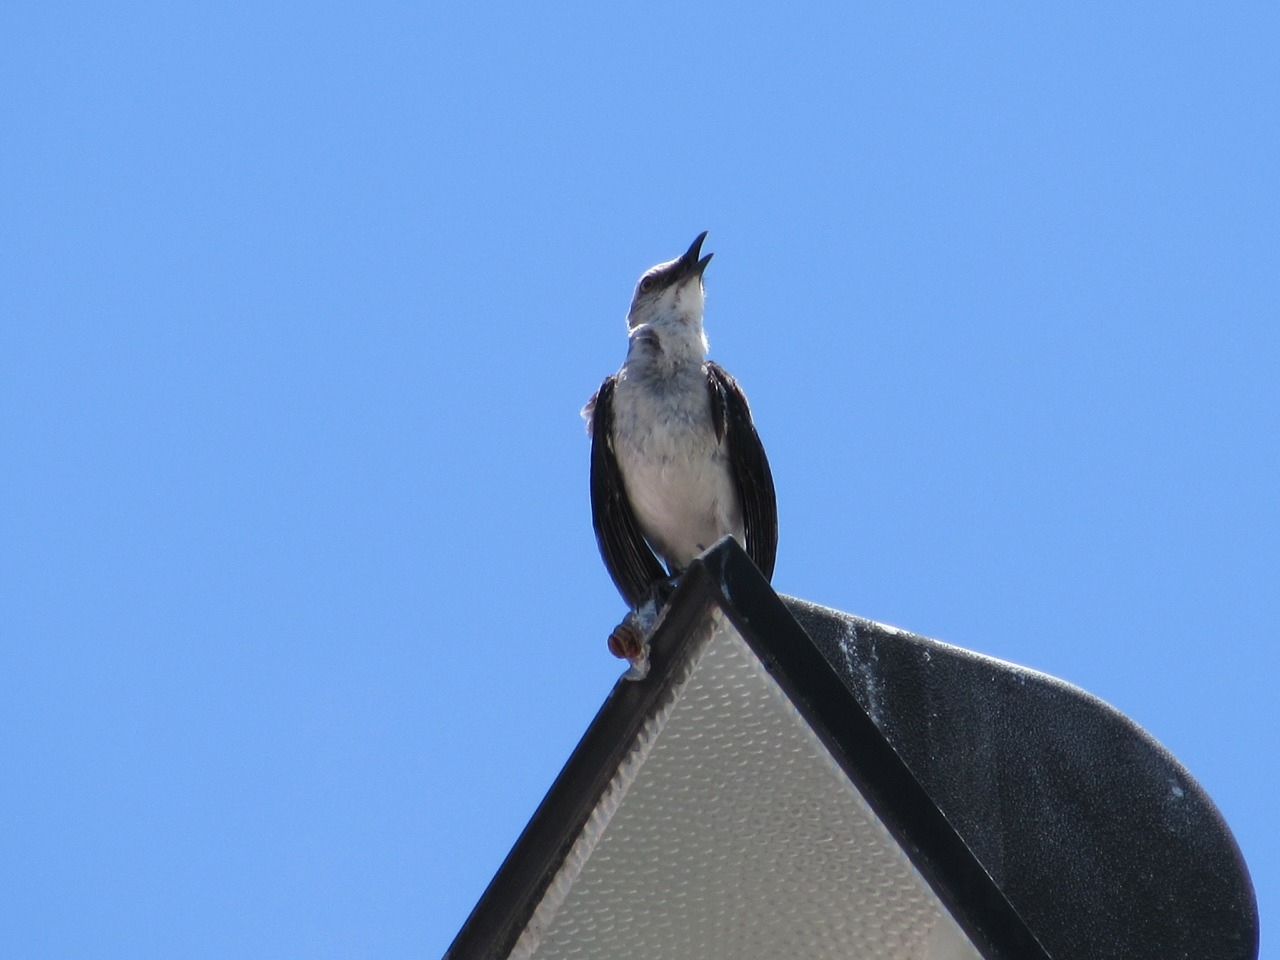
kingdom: Animalia
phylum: Chordata
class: Aves
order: Passeriformes
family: Mimidae
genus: Mimus
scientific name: Mimus gilvus
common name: Tropical mockingbird
